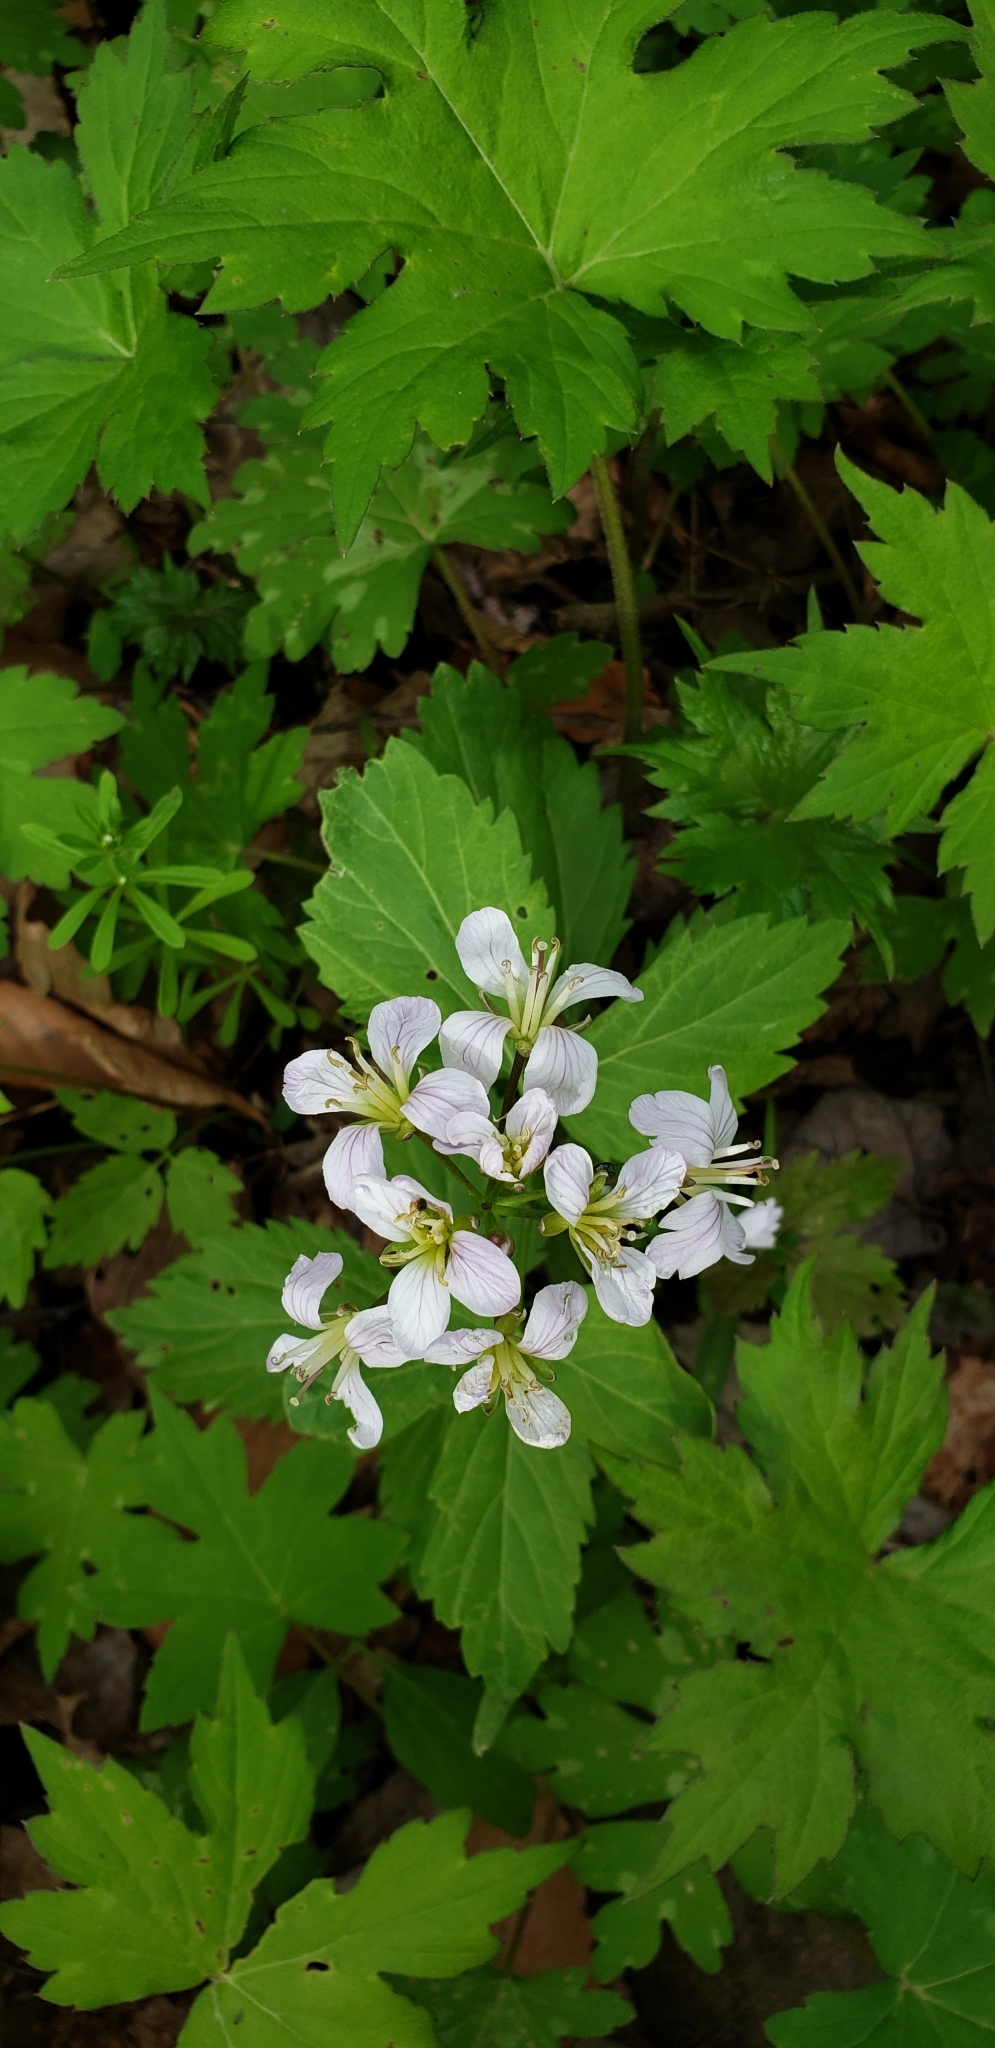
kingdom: Plantae
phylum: Tracheophyta
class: Magnoliopsida
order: Brassicales
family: Brassicaceae
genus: Cardamine
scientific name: Cardamine diphylla
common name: Broad-leaved toothwort
